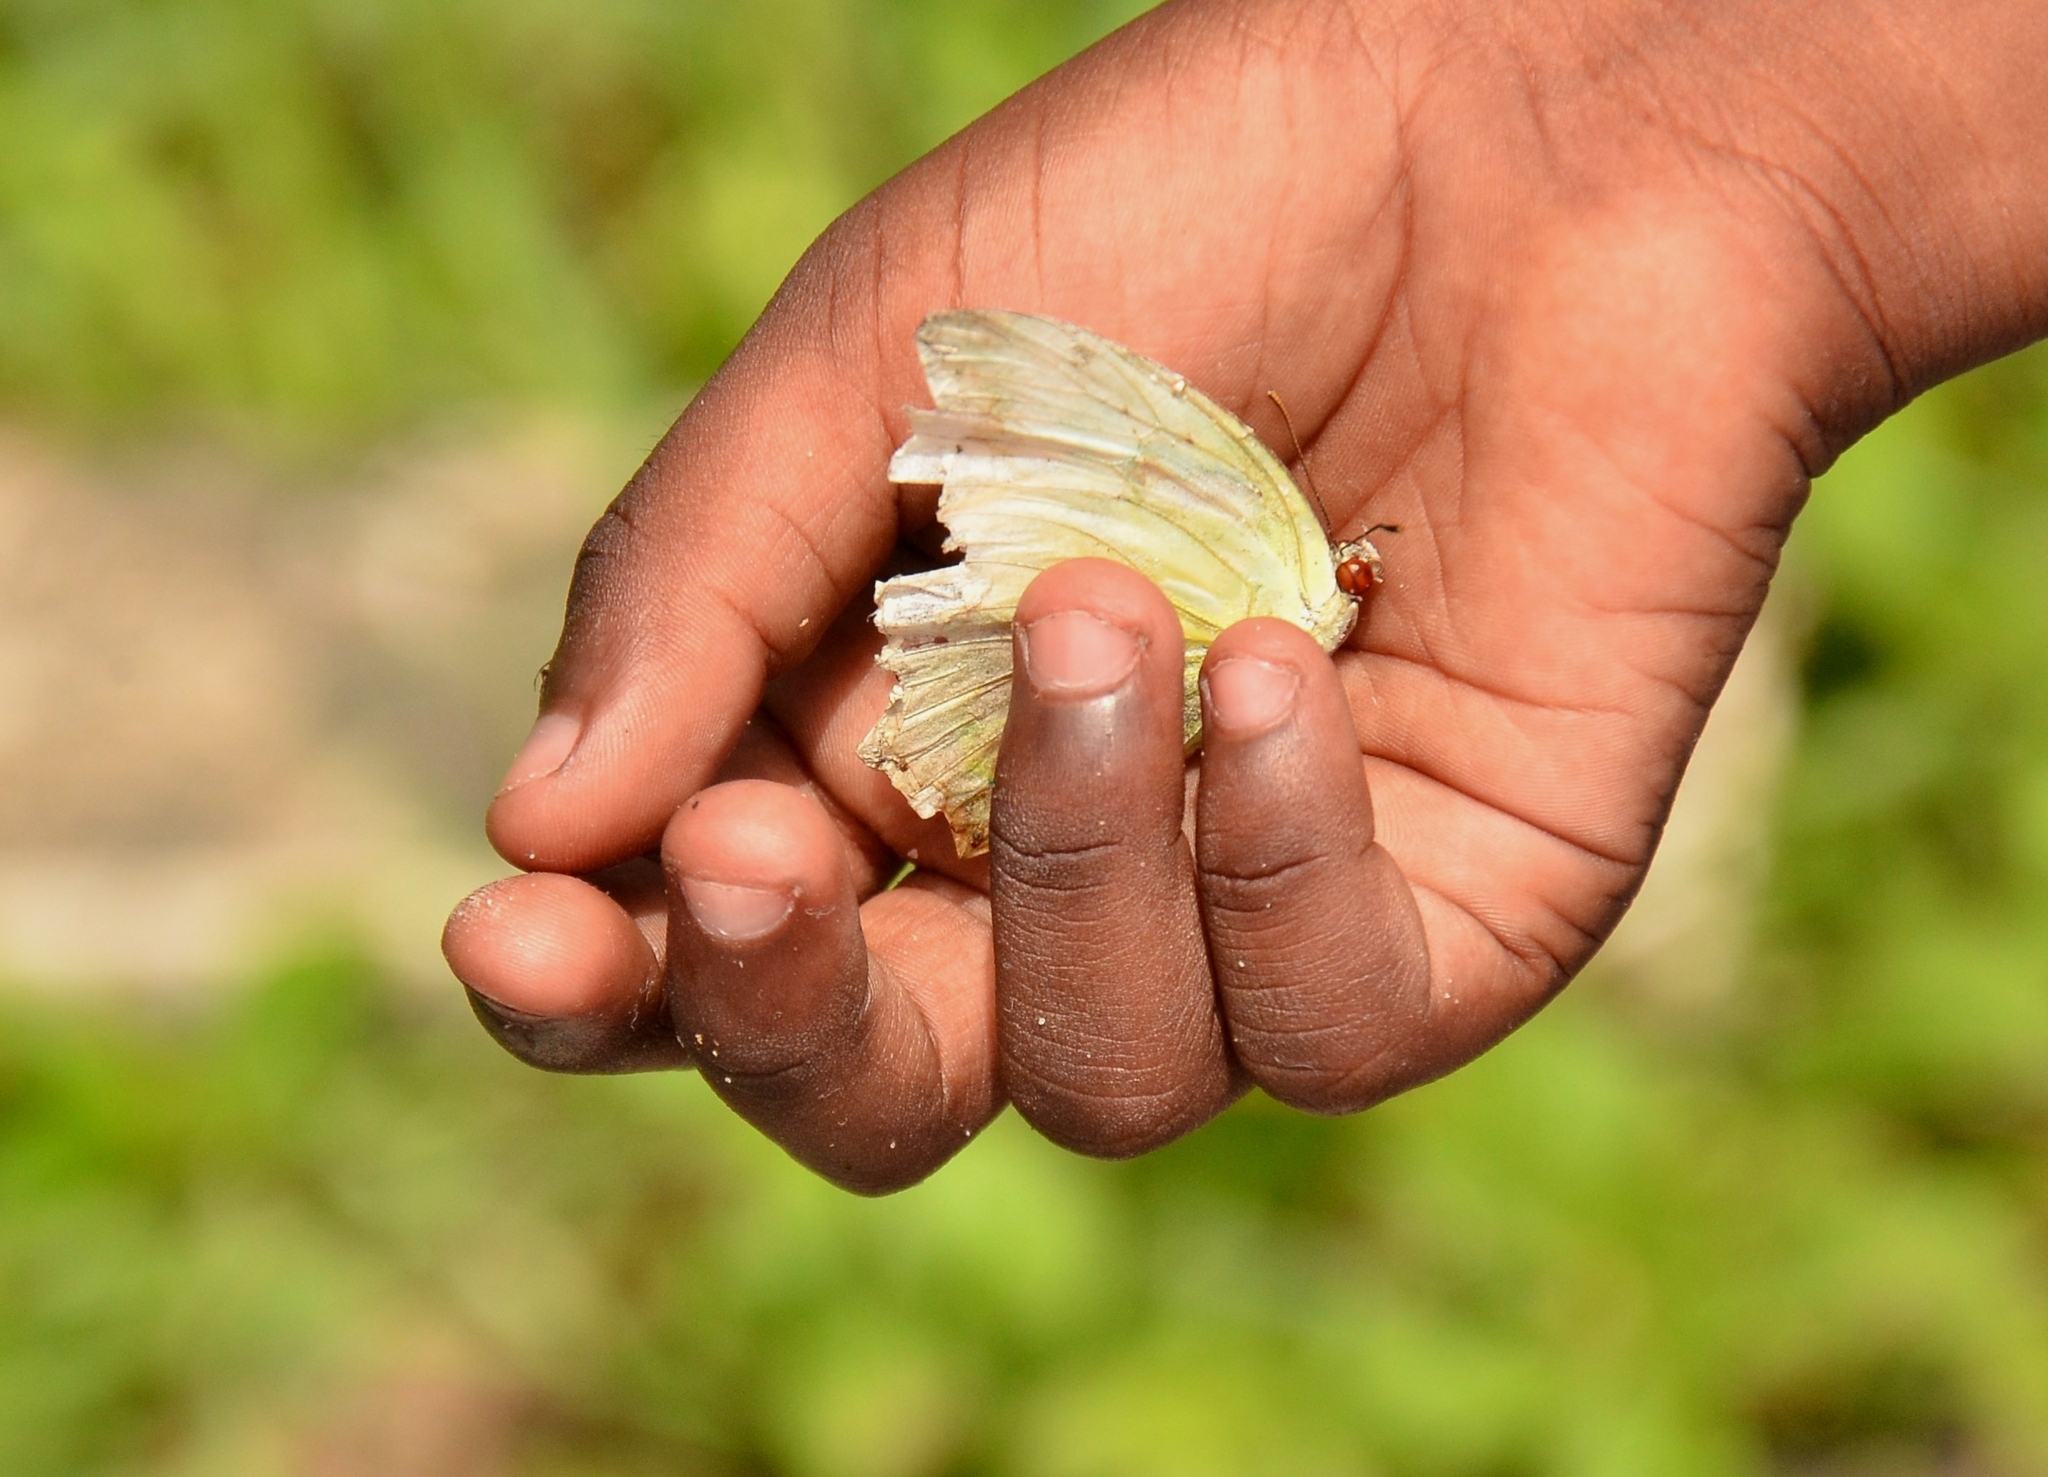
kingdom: Animalia
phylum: Arthropoda
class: Insecta
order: Lepidoptera
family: Pieridae
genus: Catopsilia
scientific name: Catopsilia pomona
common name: Common emigrant
